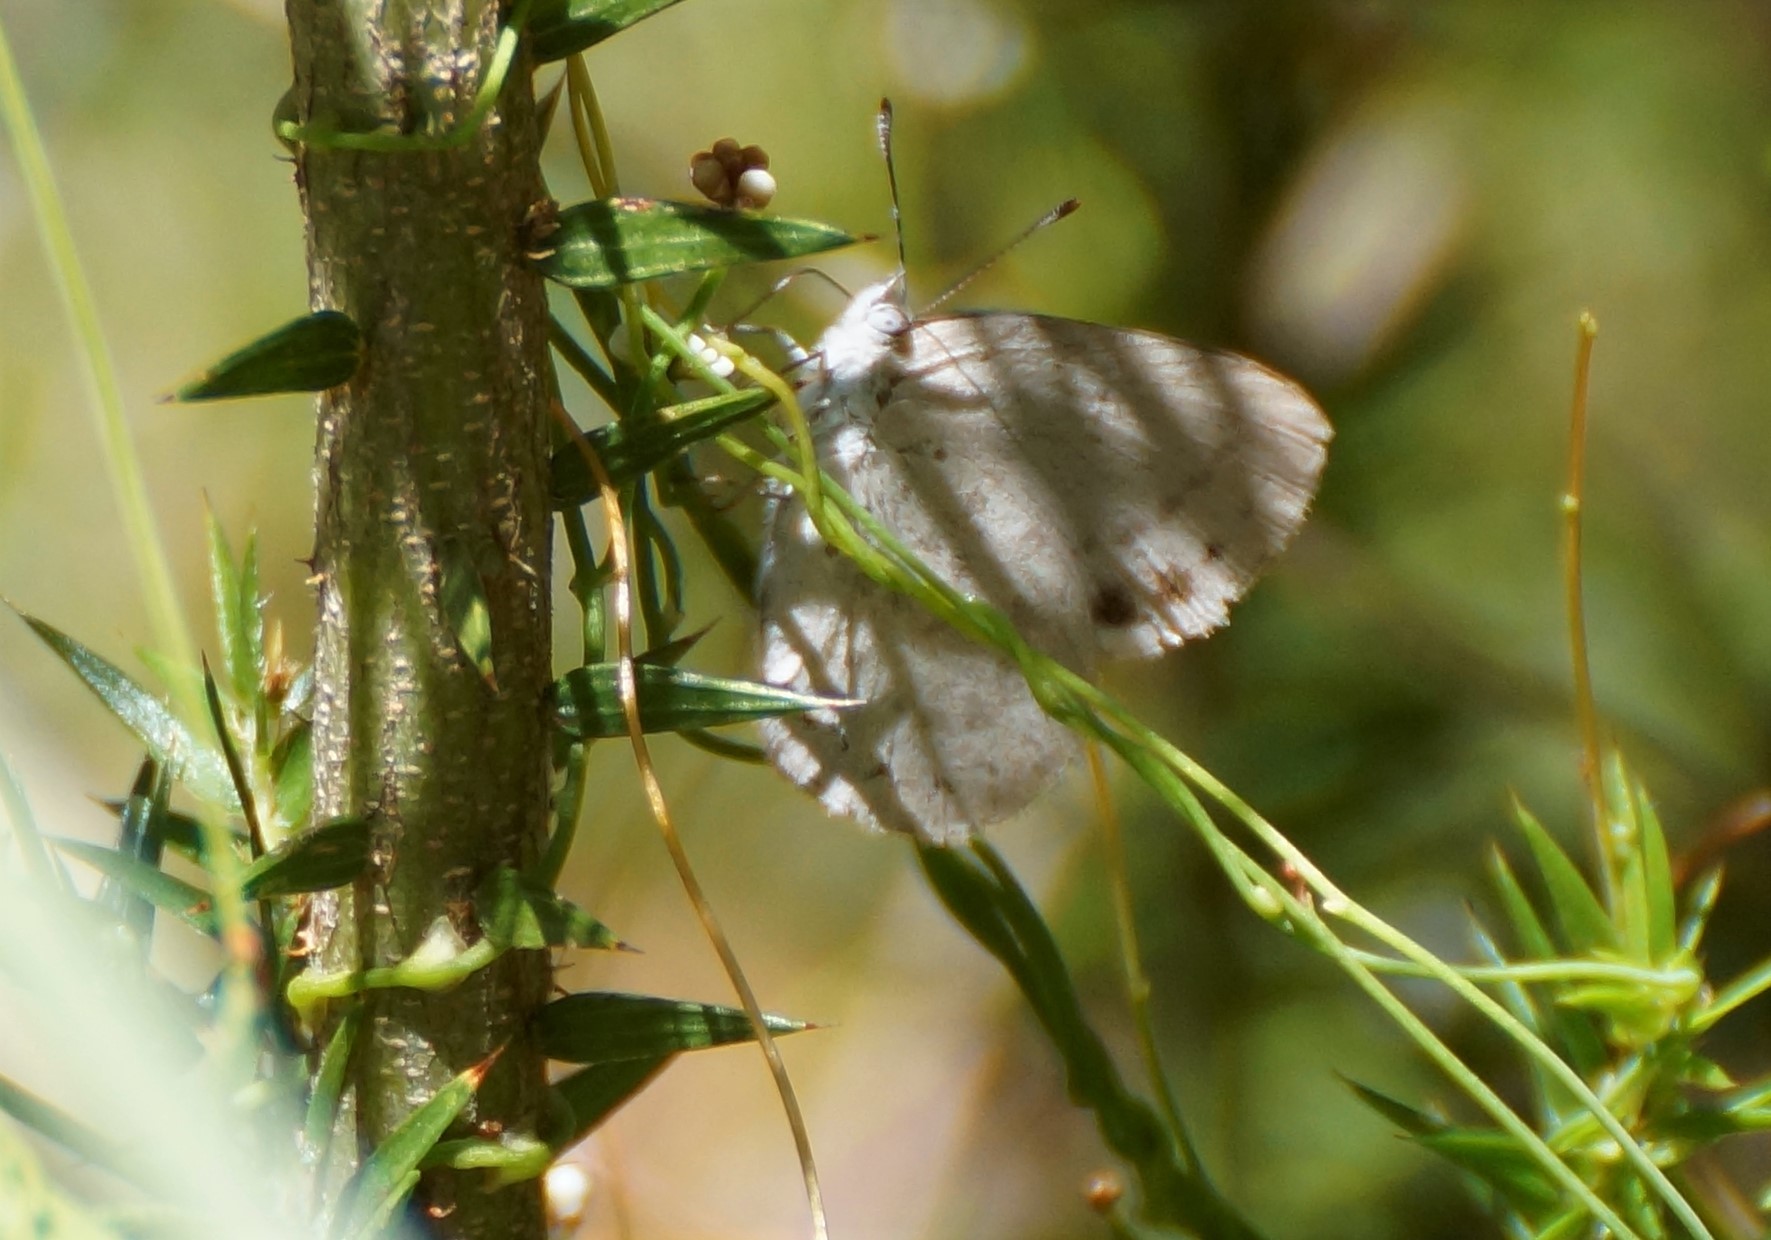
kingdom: Animalia
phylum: Arthropoda
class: Insecta
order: Lepidoptera
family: Lycaenidae
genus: Candalides
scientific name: Candalides
